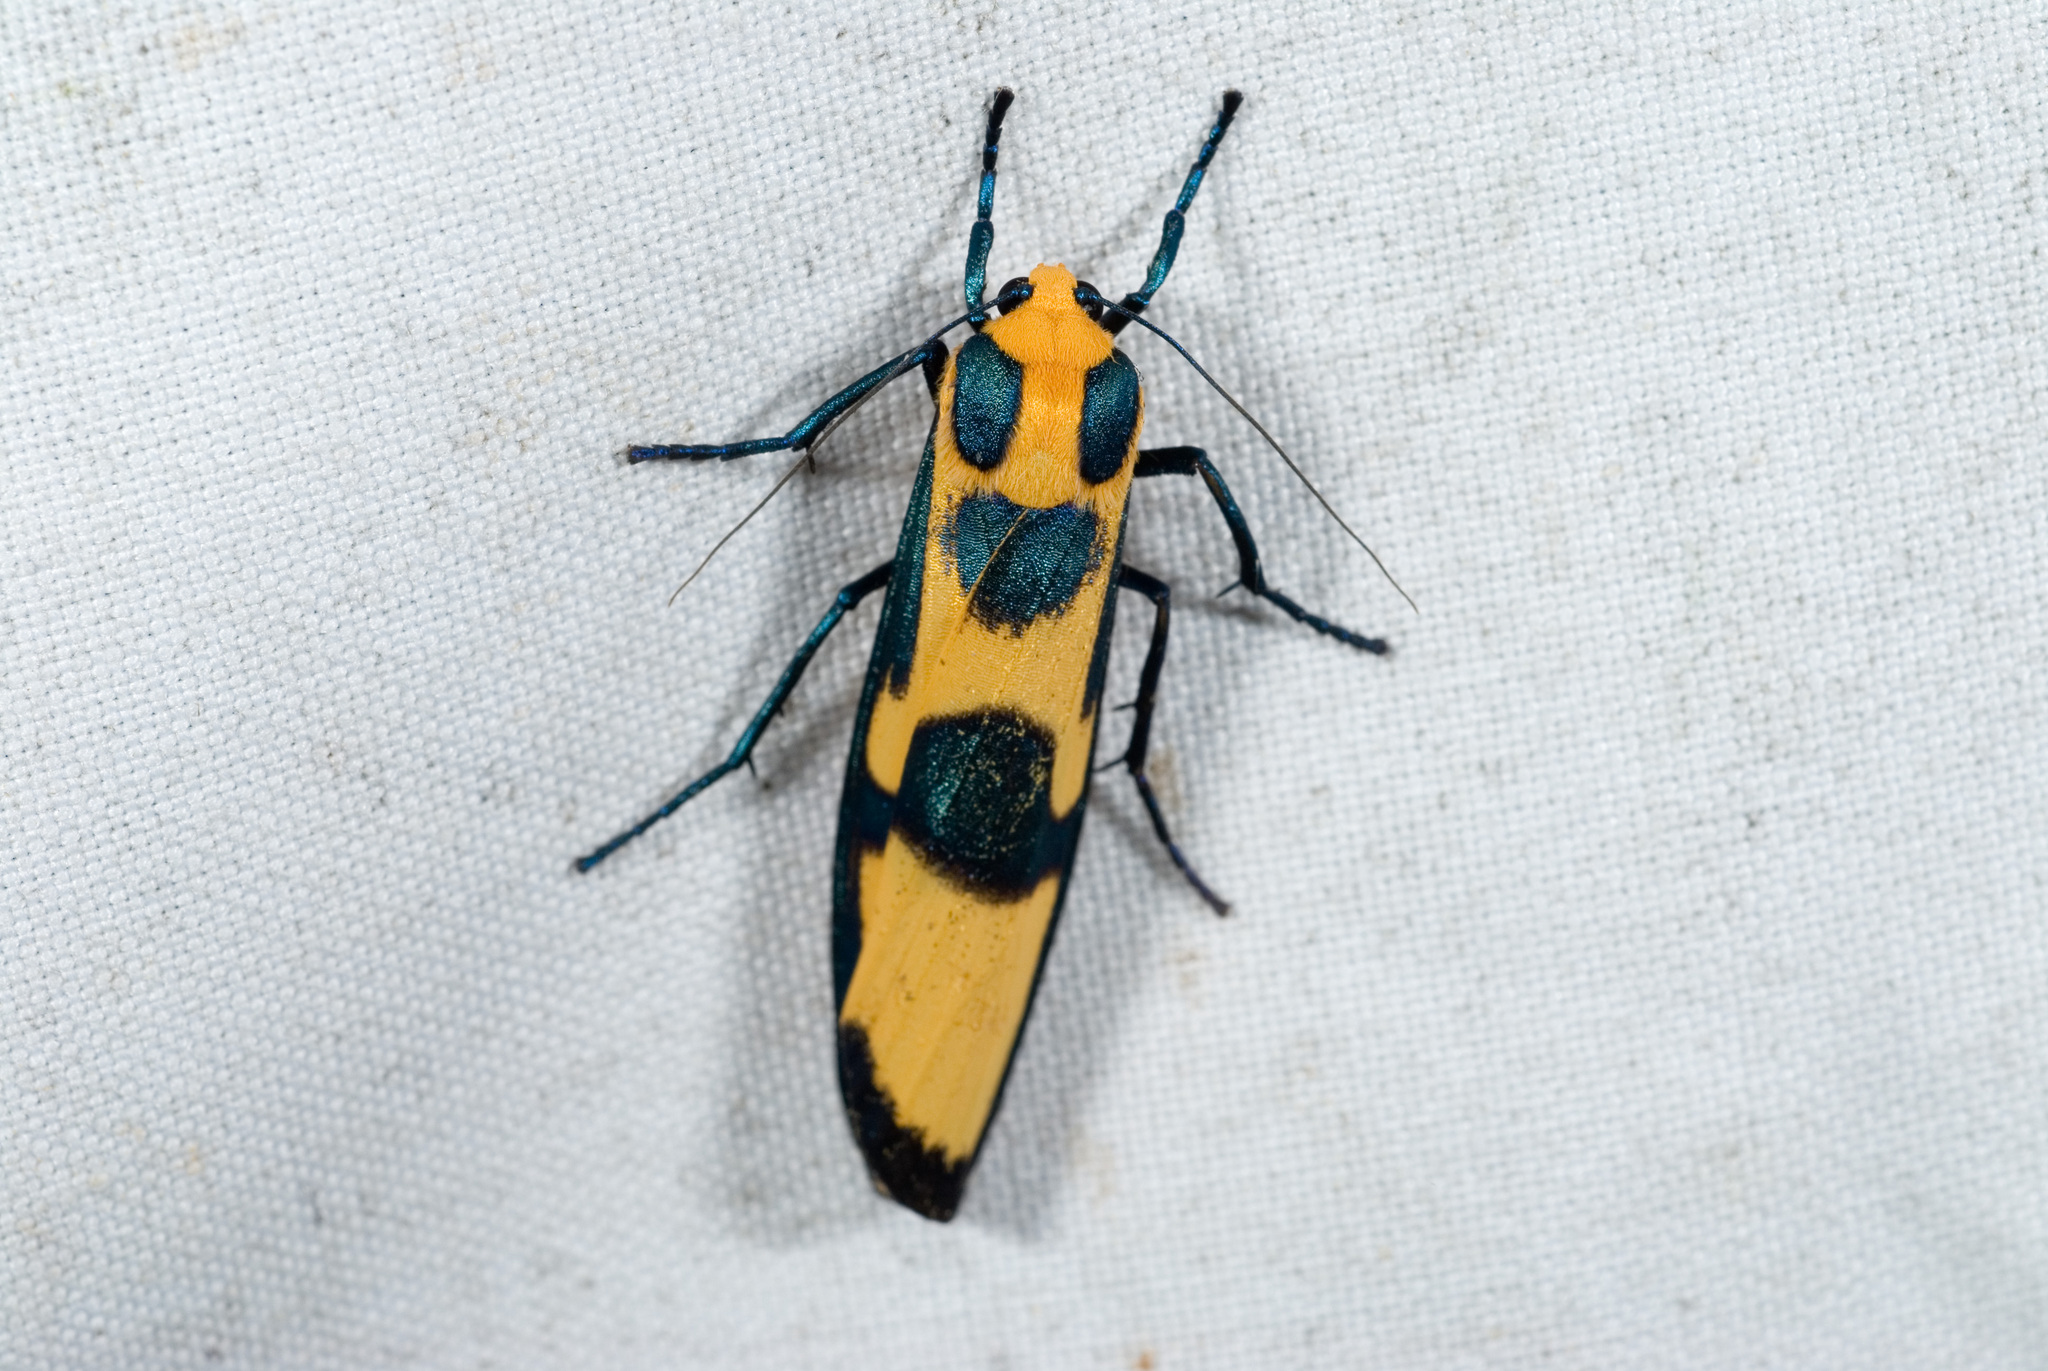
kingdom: Animalia
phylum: Arthropoda
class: Insecta
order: Lepidoptera
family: Erebidae
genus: Chrysaeglia
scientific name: Chrysaeglia magnifica
